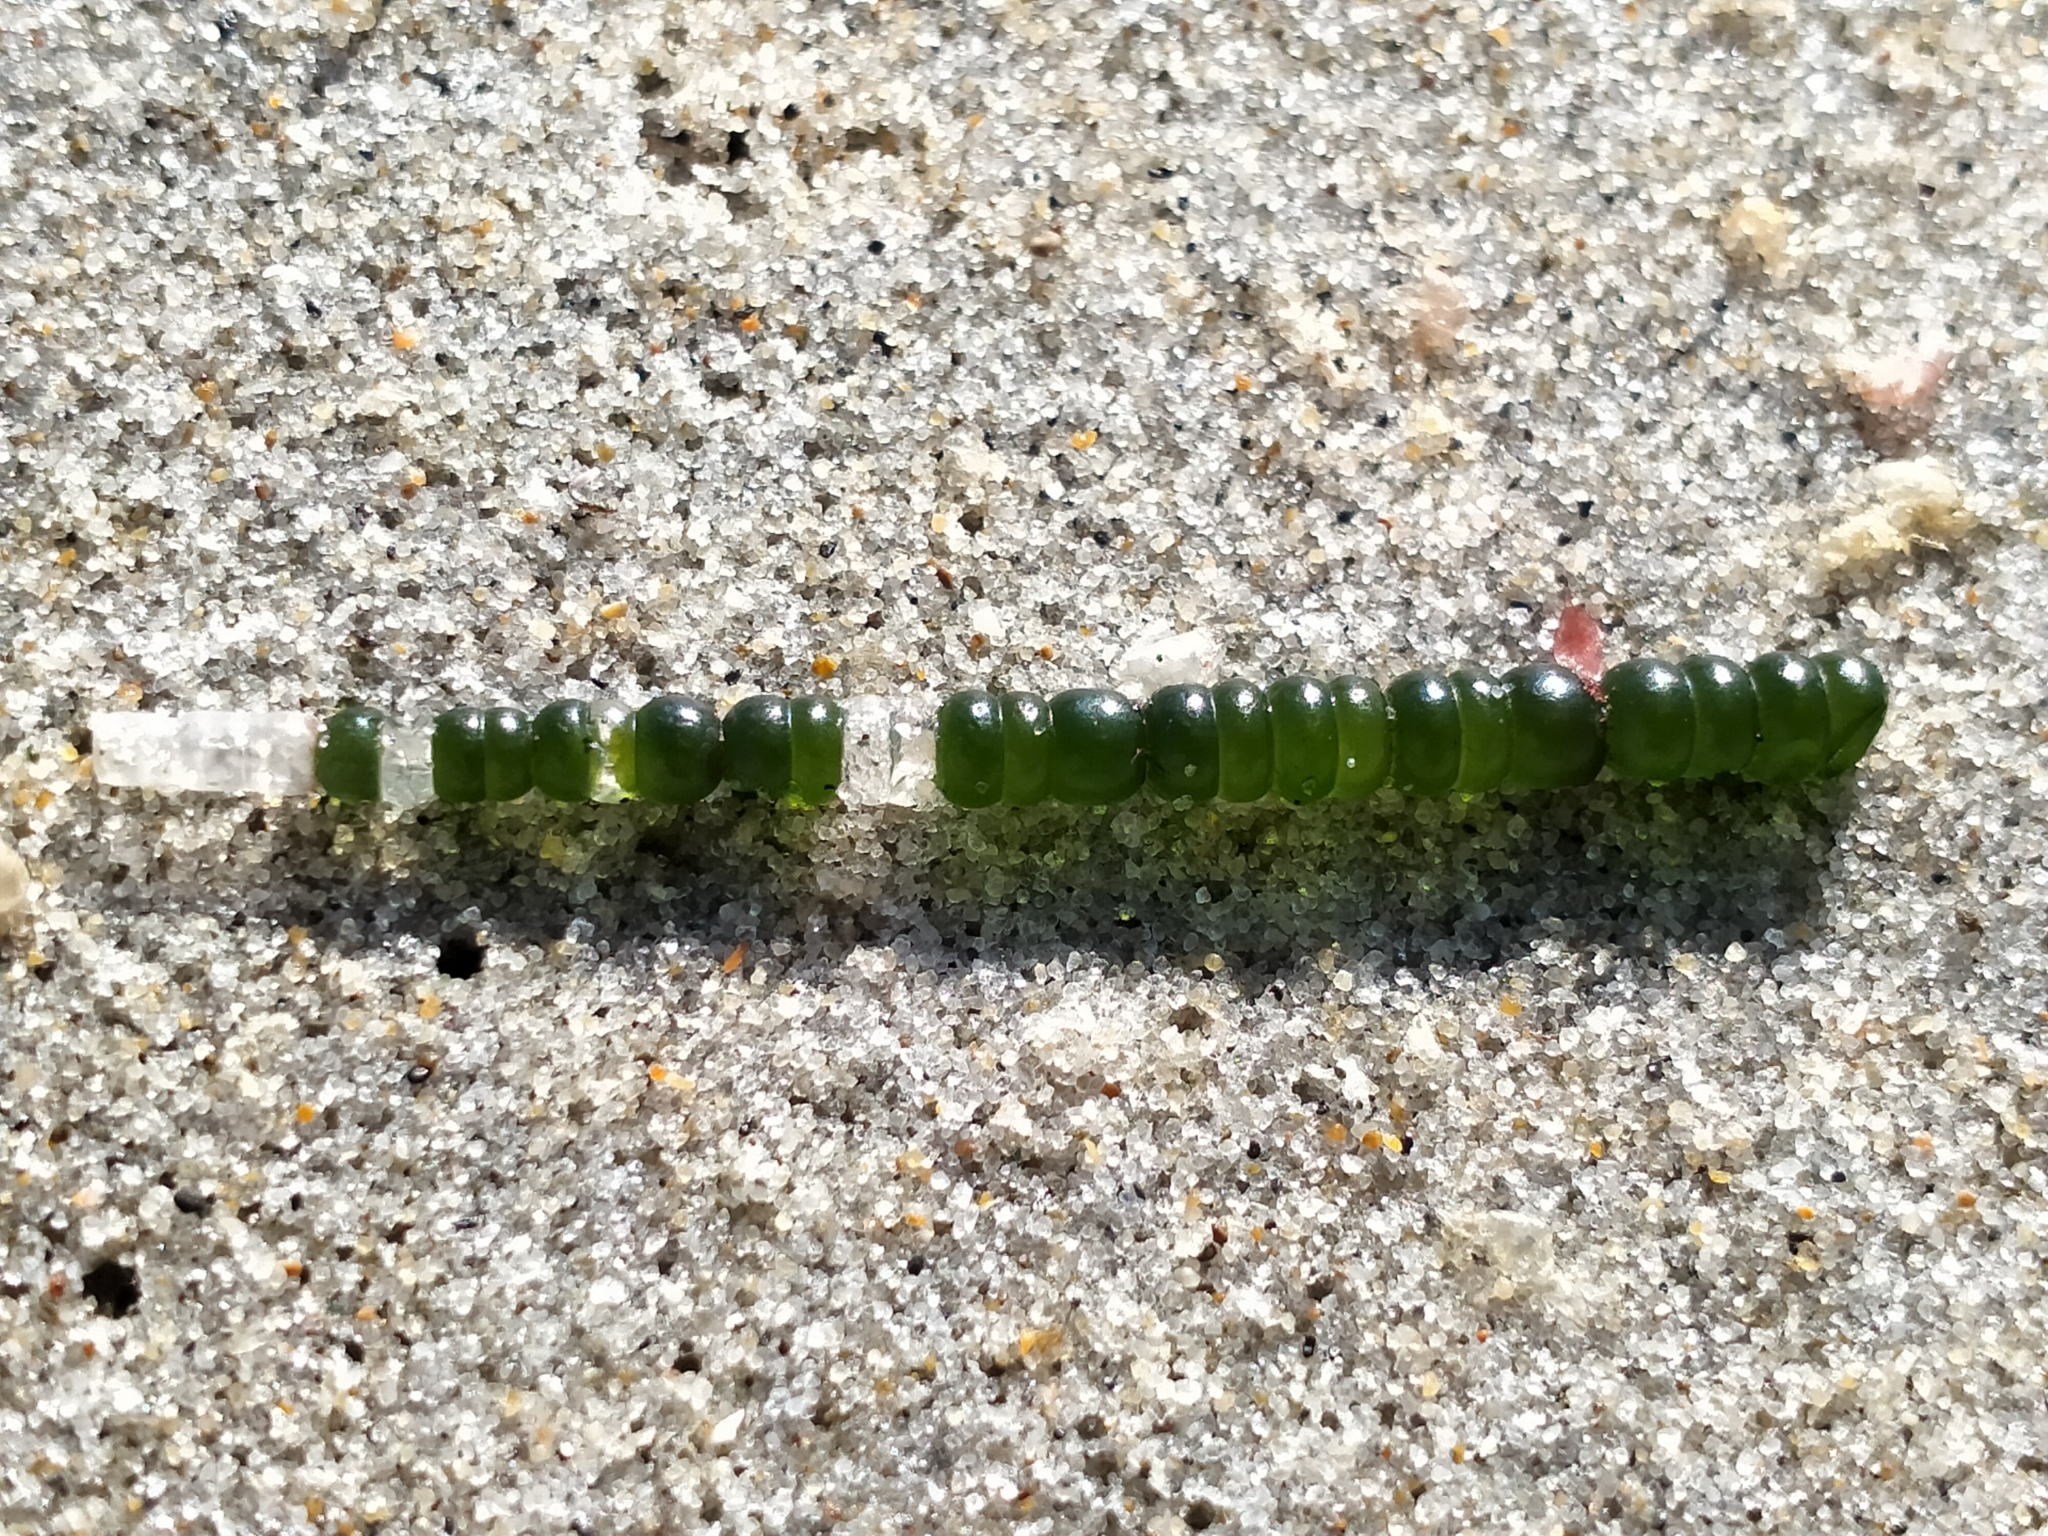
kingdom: Plantae
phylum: Chlorophyta
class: Ulvophyceae
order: Cladophorales
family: Cladophoraceae
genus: Chaetomorpha
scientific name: Chaetomorpha coliformis
